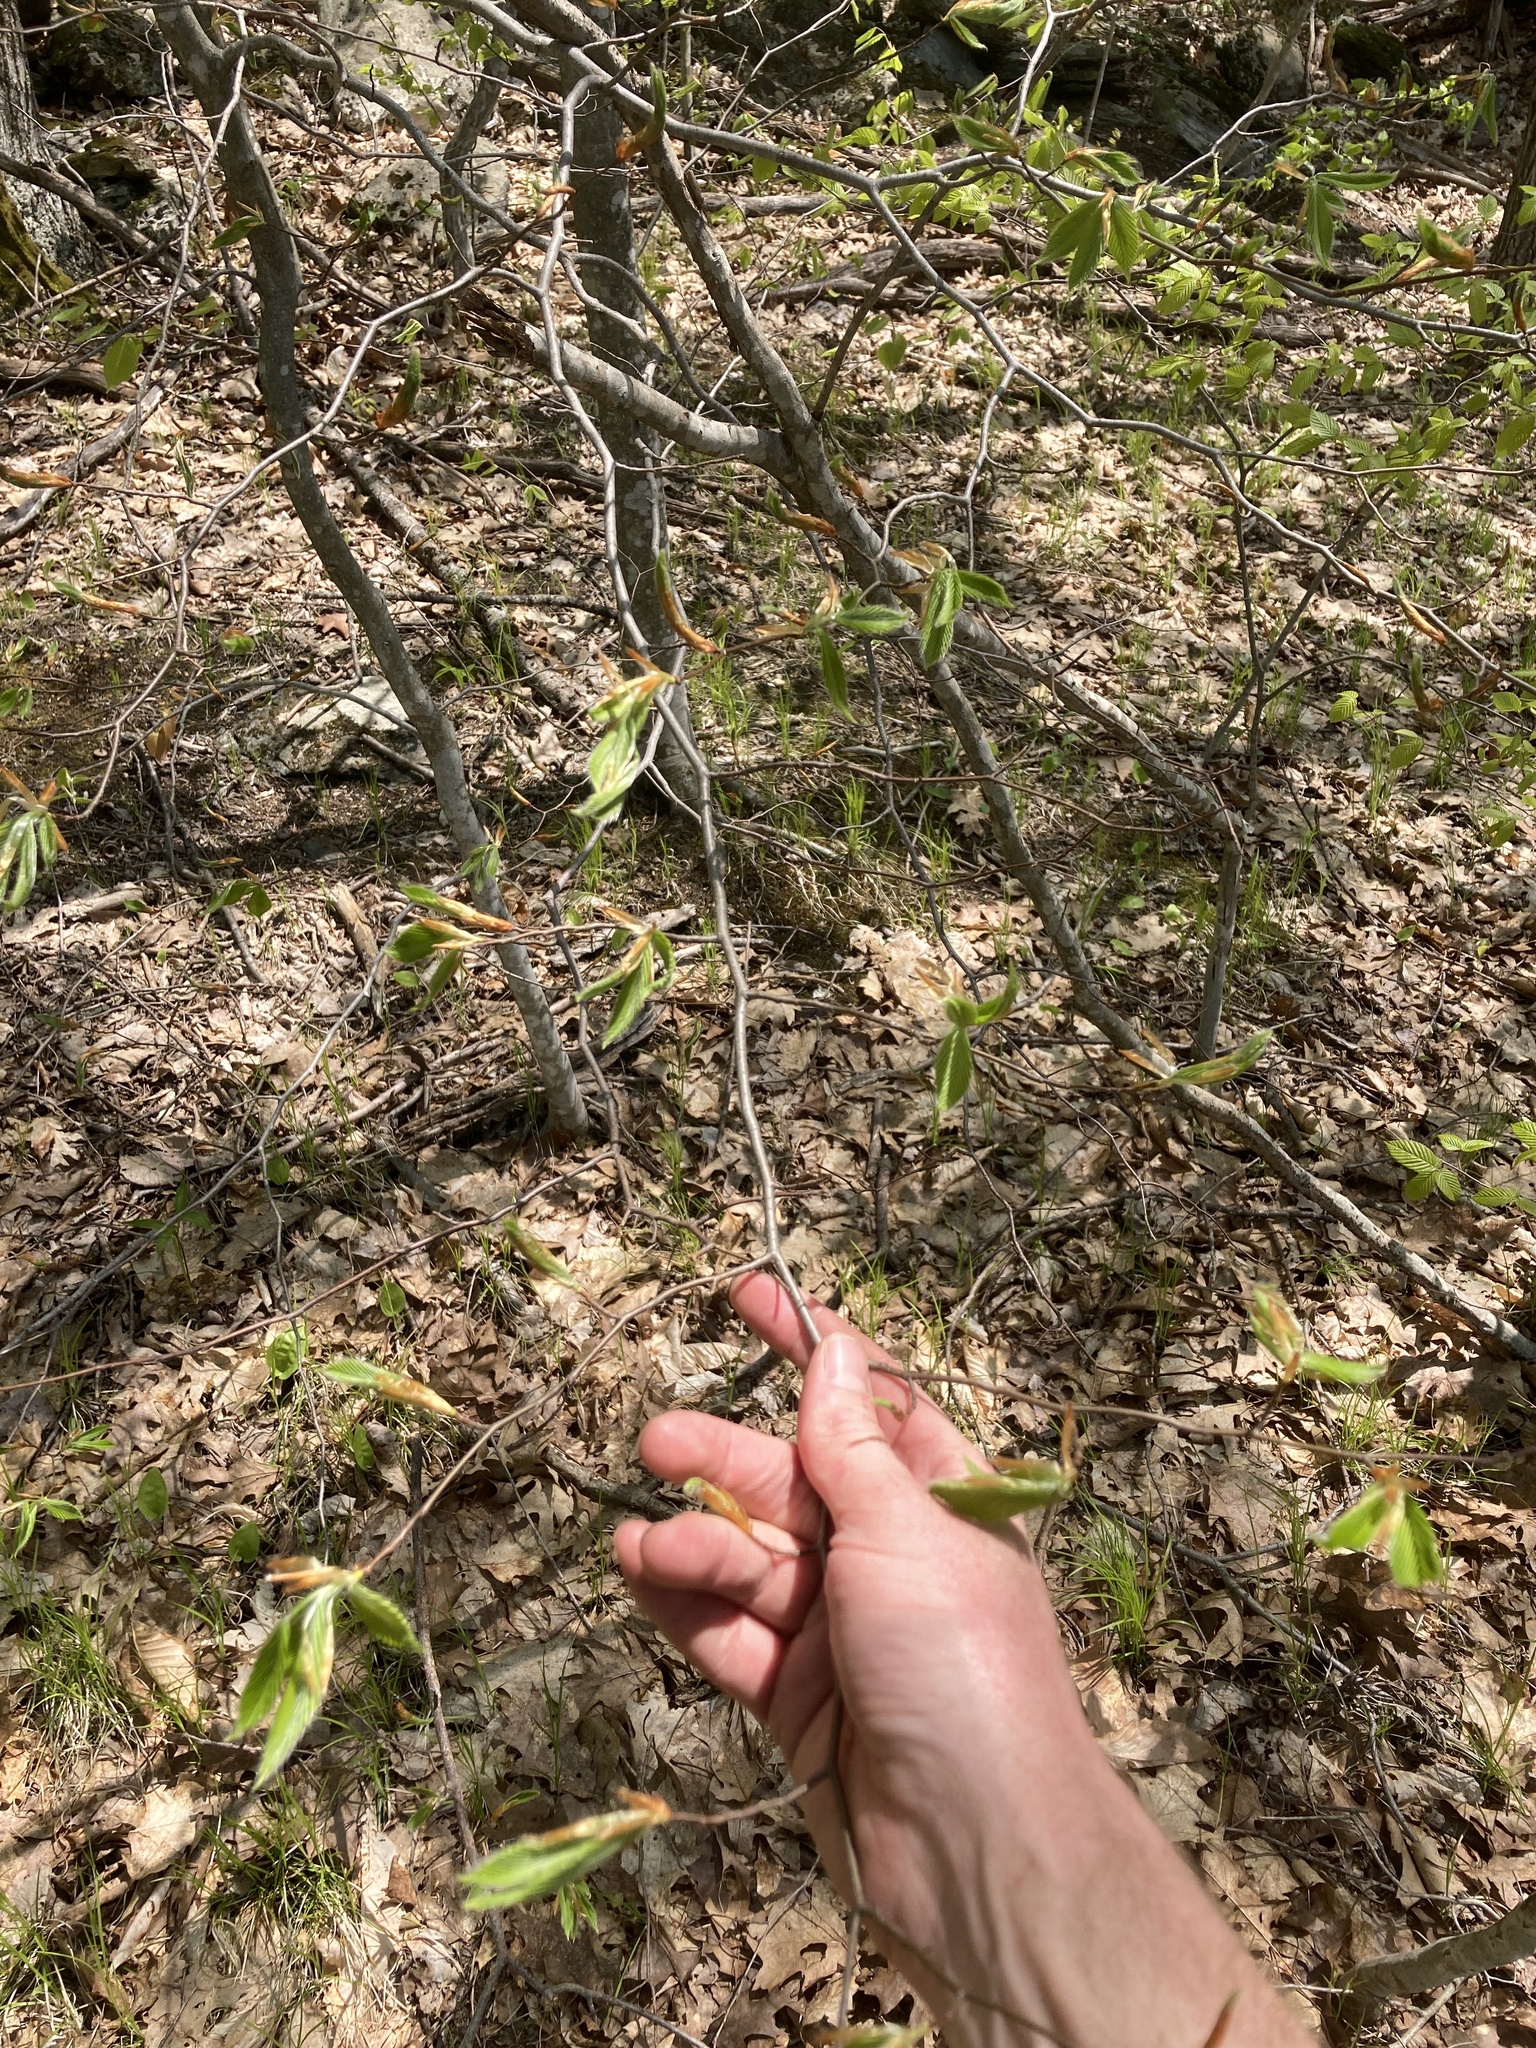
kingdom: Plantae
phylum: Tracheophyta
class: Magnoliopsida
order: Fagales
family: Fagaceae
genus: Fagus
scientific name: Fagus grandifolia
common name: American beech
